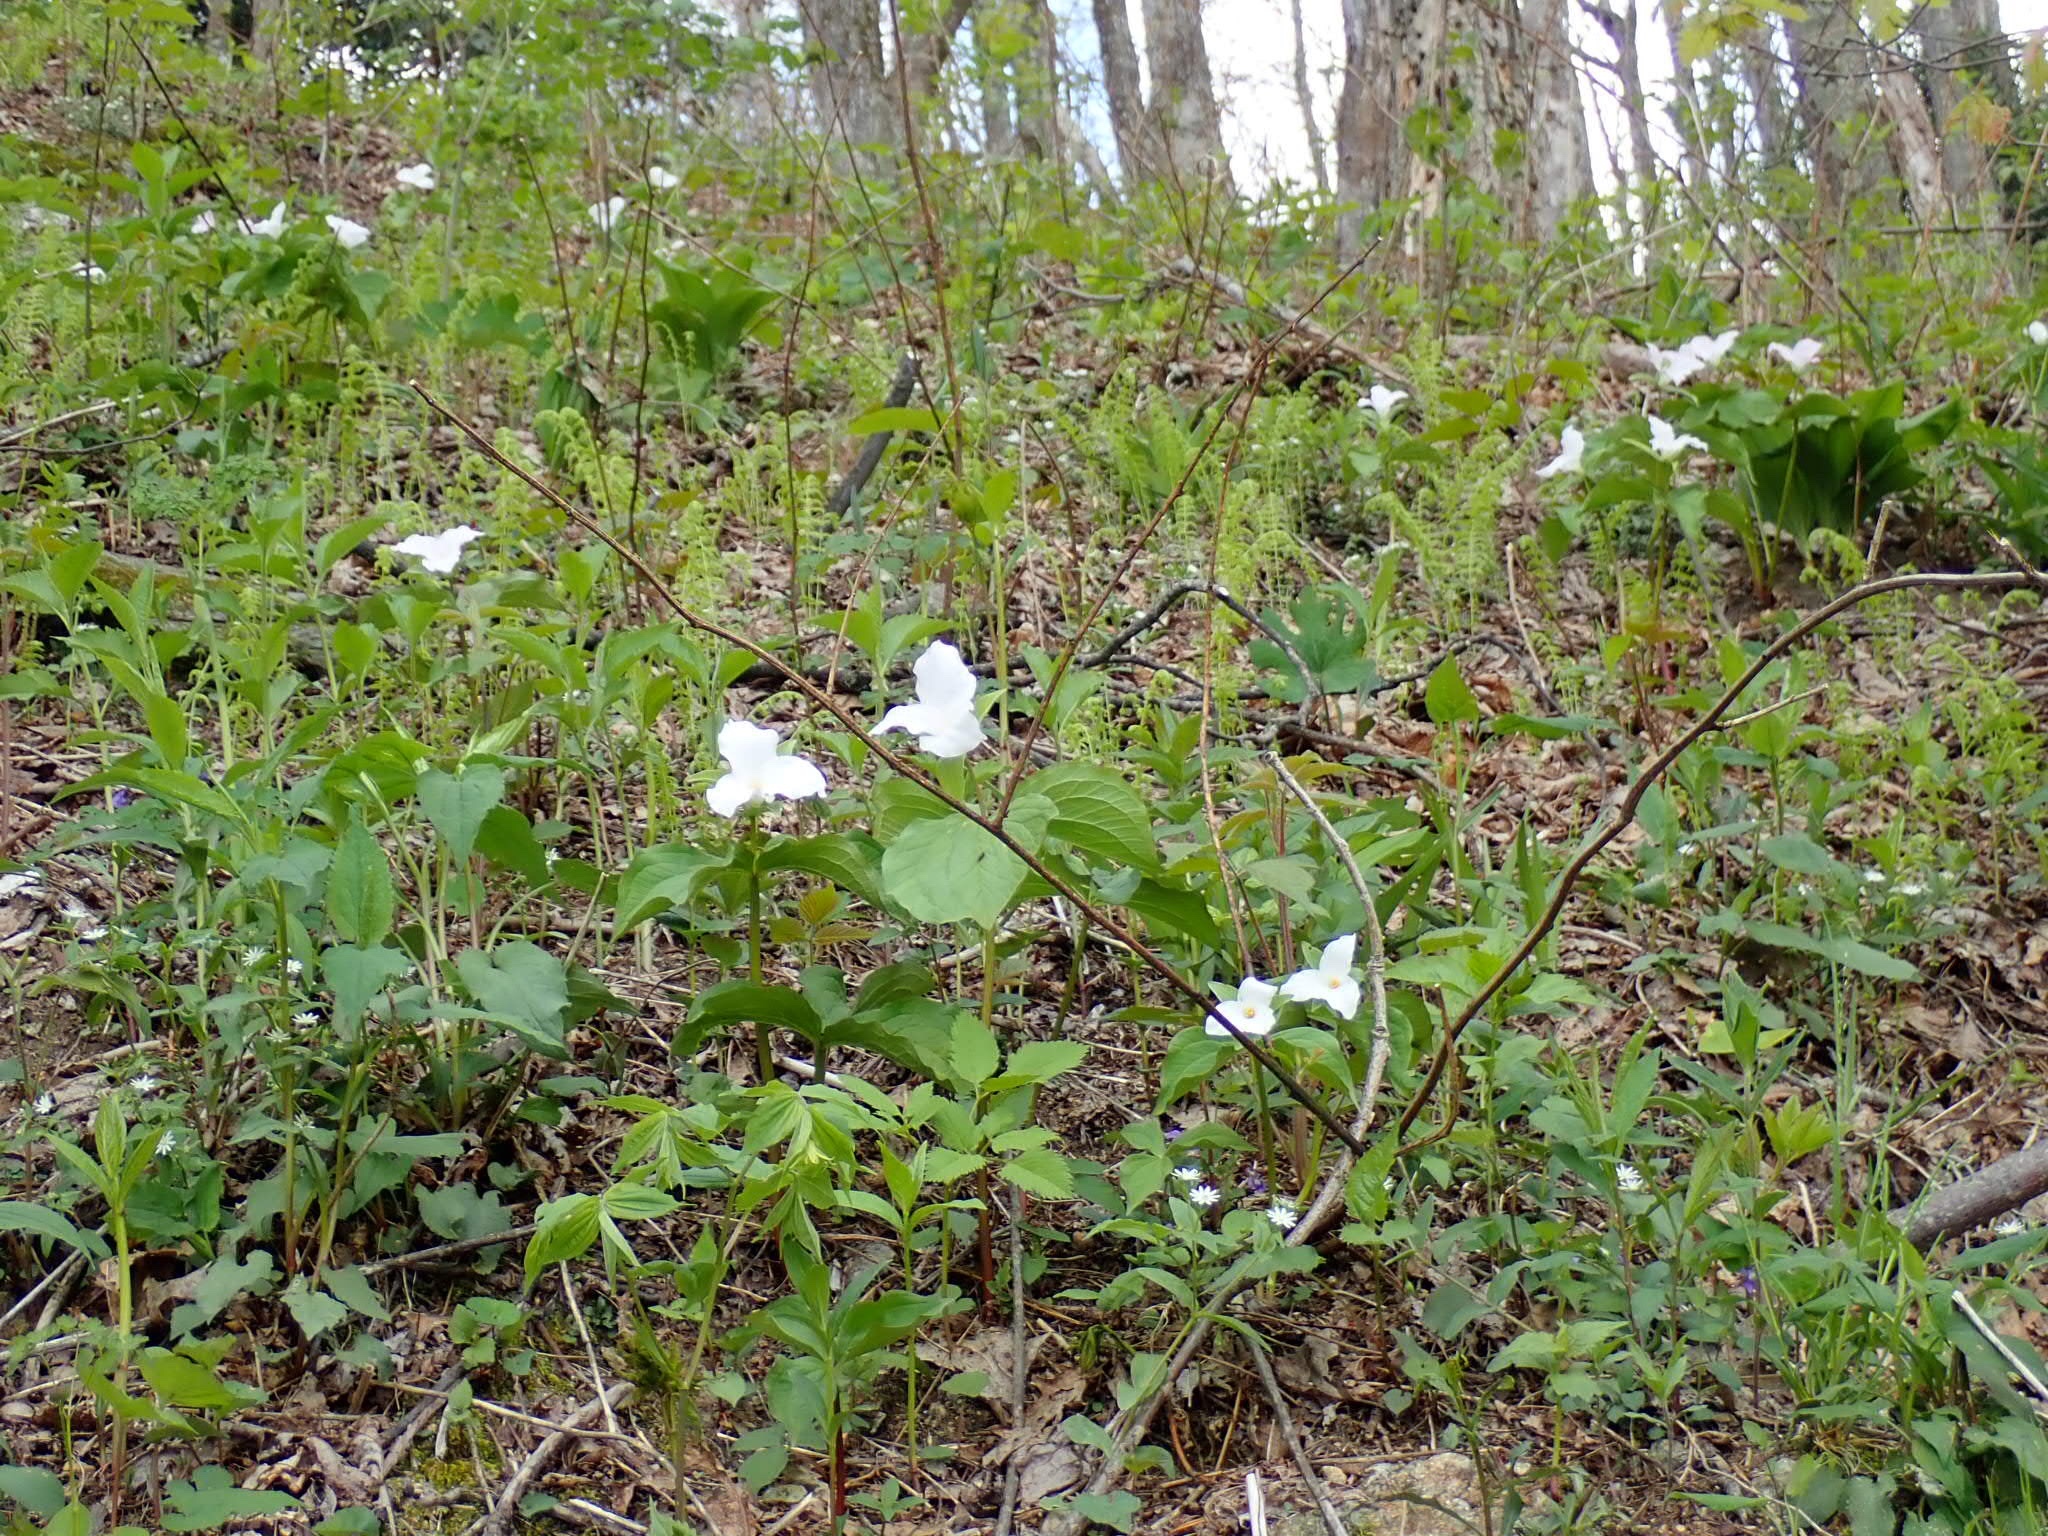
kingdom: Plantae
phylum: Tracheophyta
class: Liliopsida
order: Liliales
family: Melanthiaceae
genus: Trillium
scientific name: Trillium grandiflorum
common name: Great white trillium
